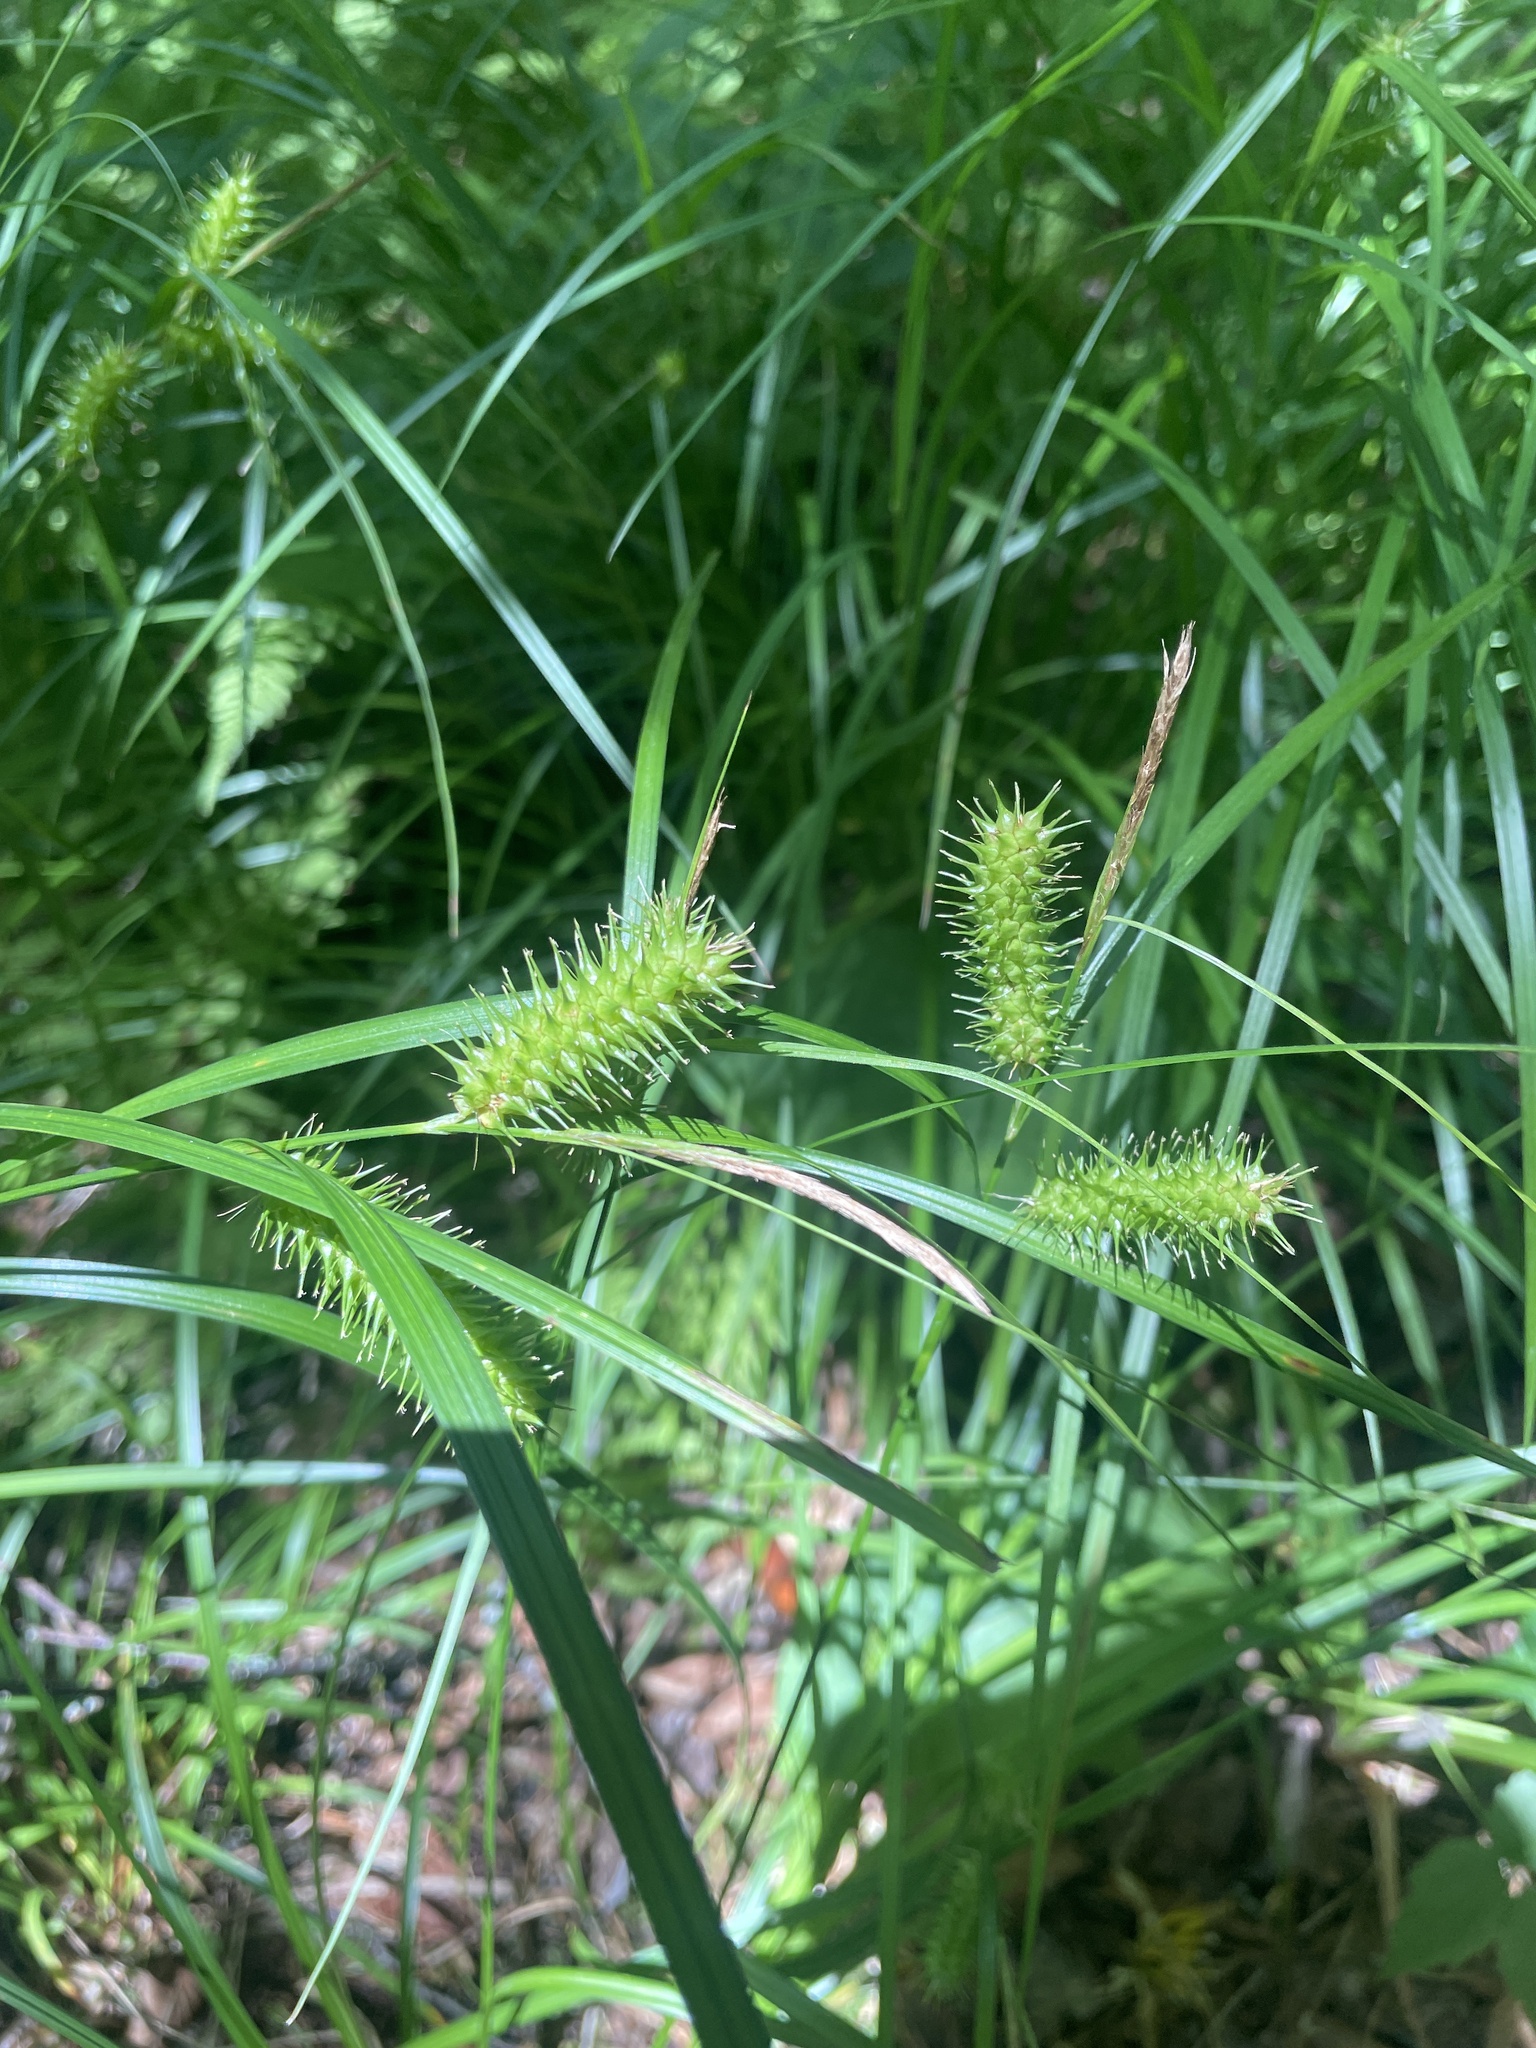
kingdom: Plantae
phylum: Tracheophyta
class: Liliopsida
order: Poales
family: Cyperaceae
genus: Carex
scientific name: Carex lurida
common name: Sallow sedge
